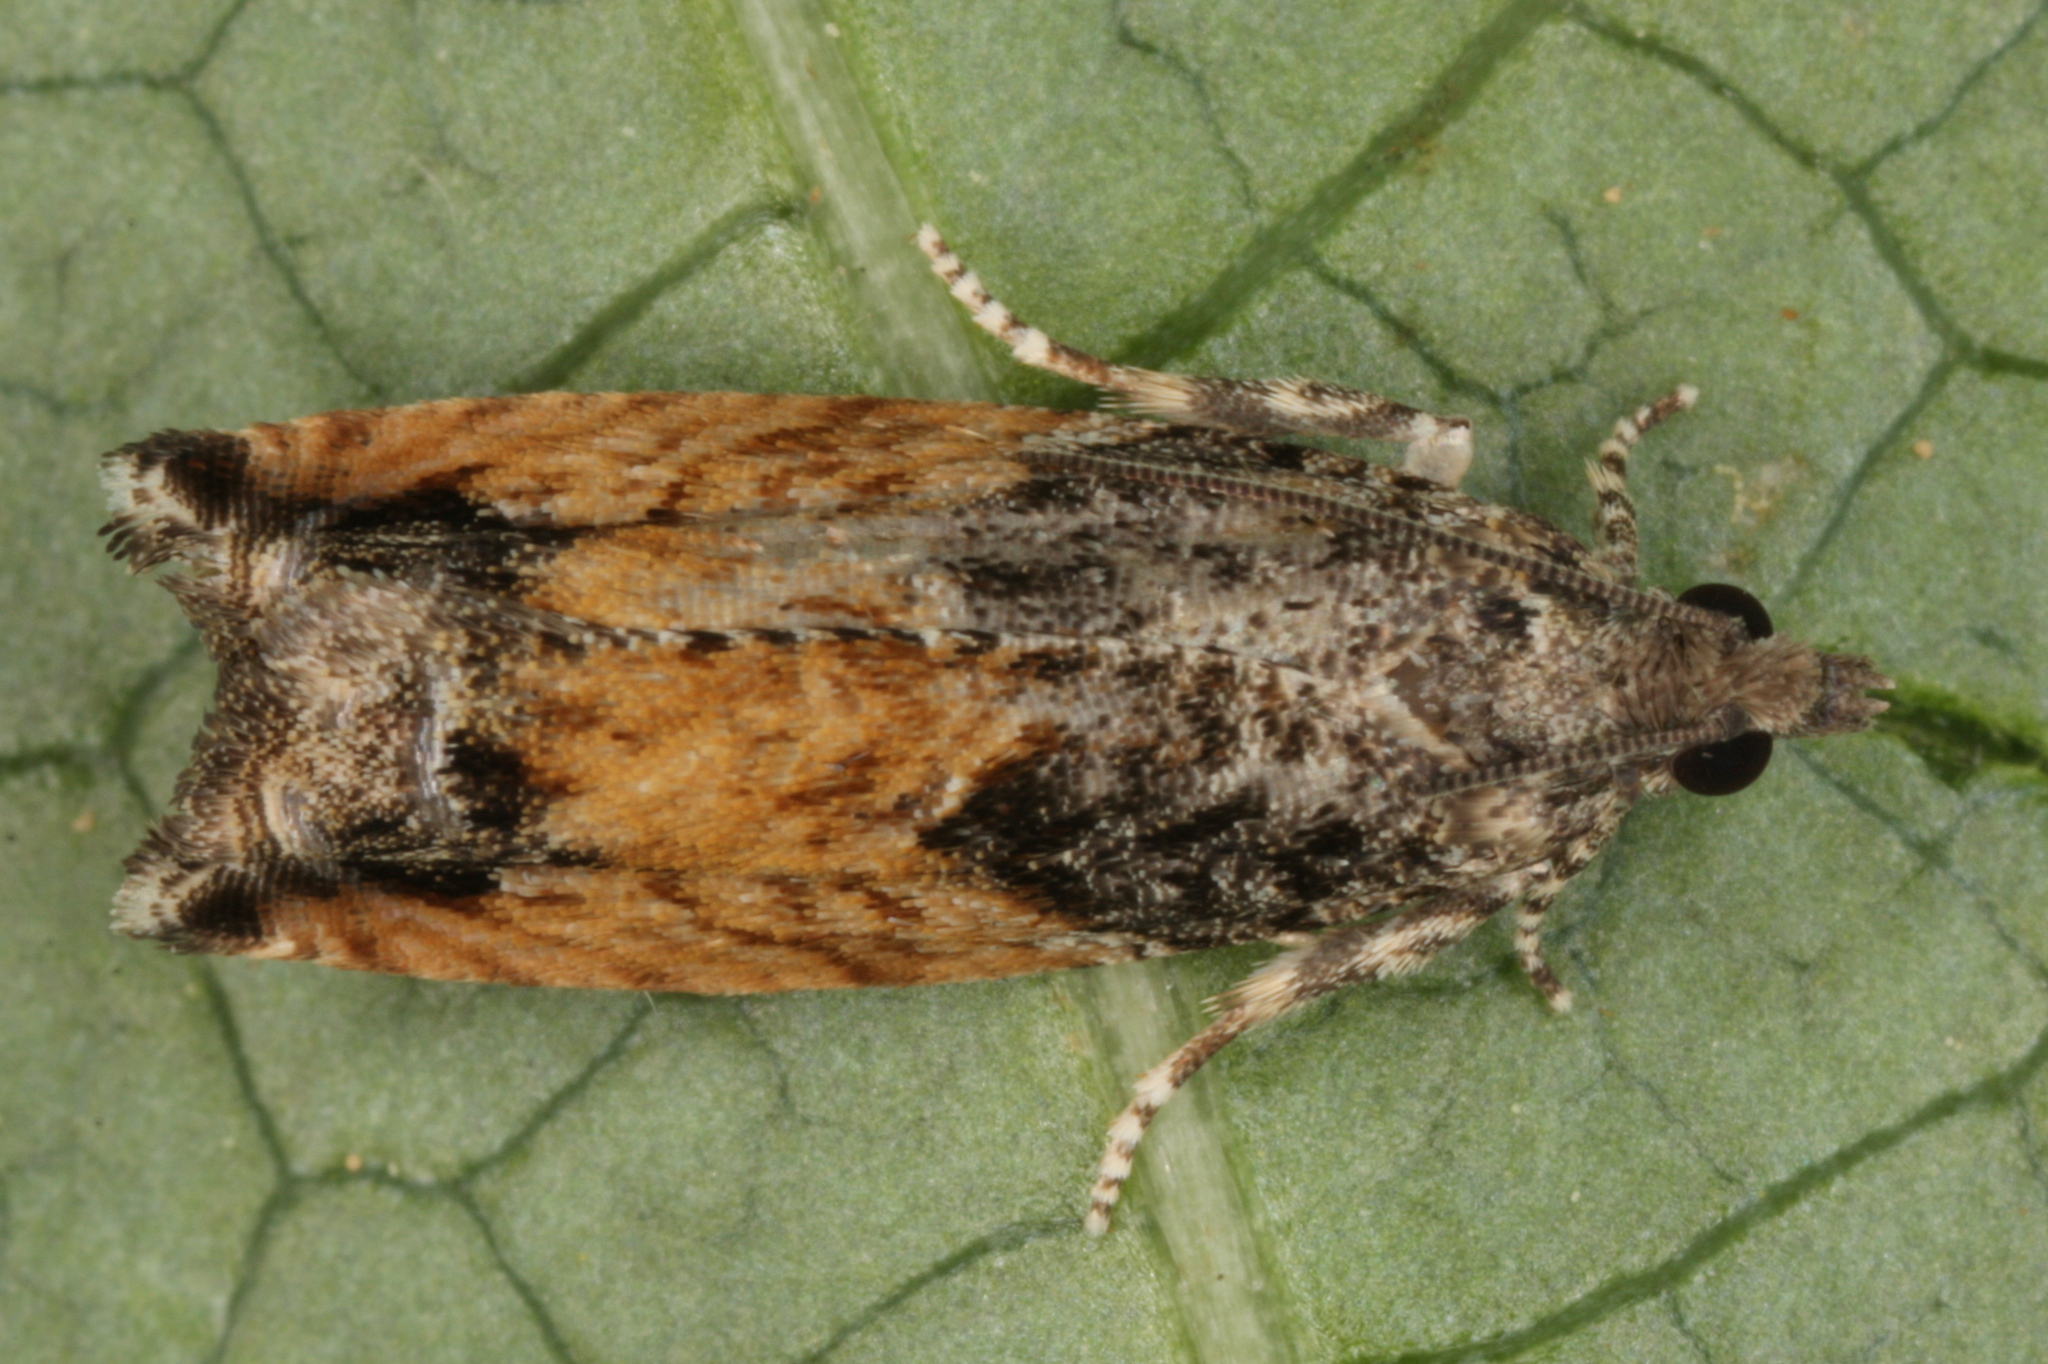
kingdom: Animalia
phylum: Arthropoda
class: Insecta
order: Lepidoptera
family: Tortricidae
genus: Epinotia
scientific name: Epinotia nisella
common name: Grey poplar bell
